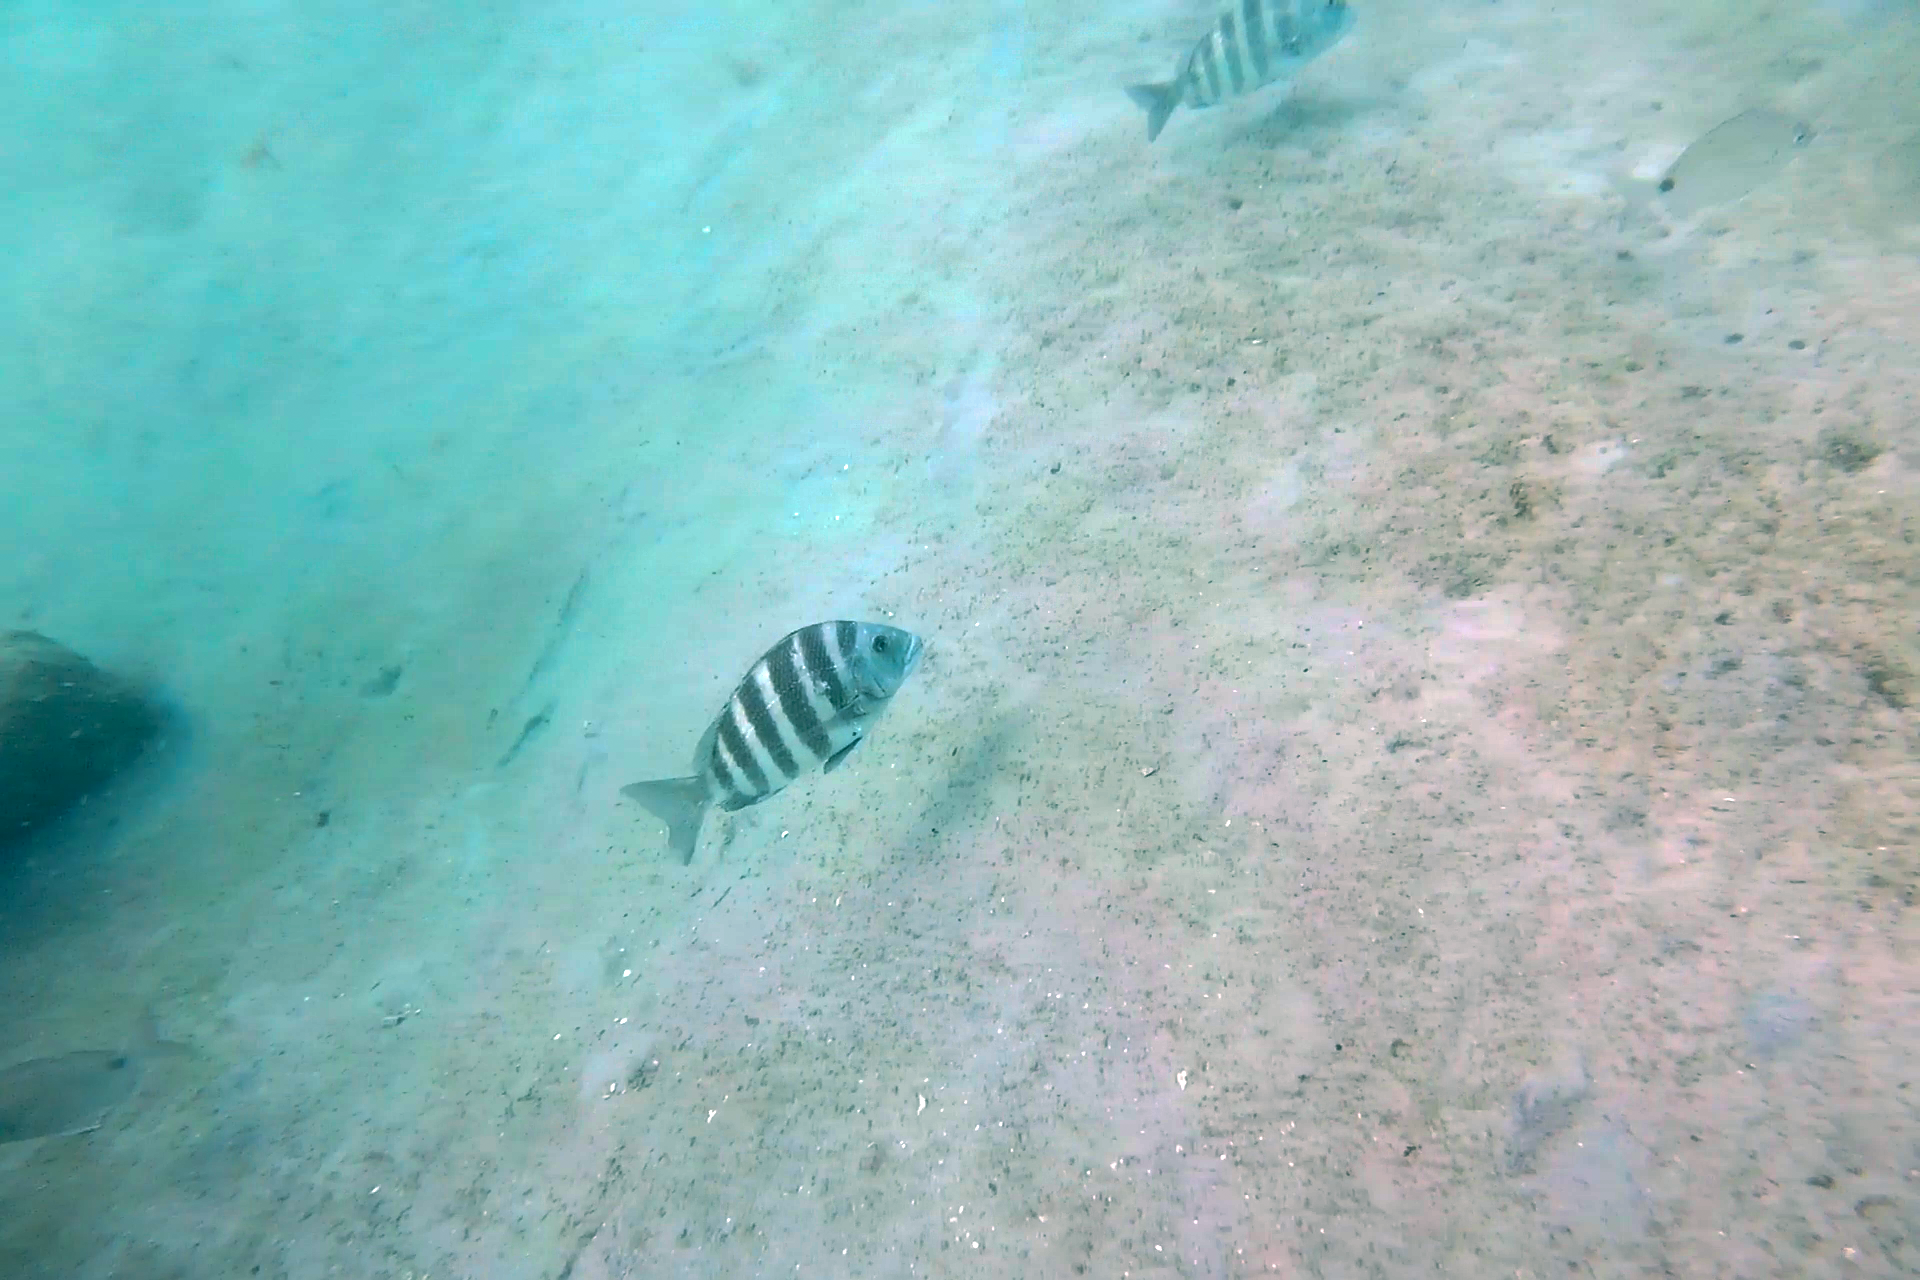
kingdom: Animalia
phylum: Chordata
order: Perciformes
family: Sparidae
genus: Archosargus
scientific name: Archosargus probatocephalus
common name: Sheepshead
